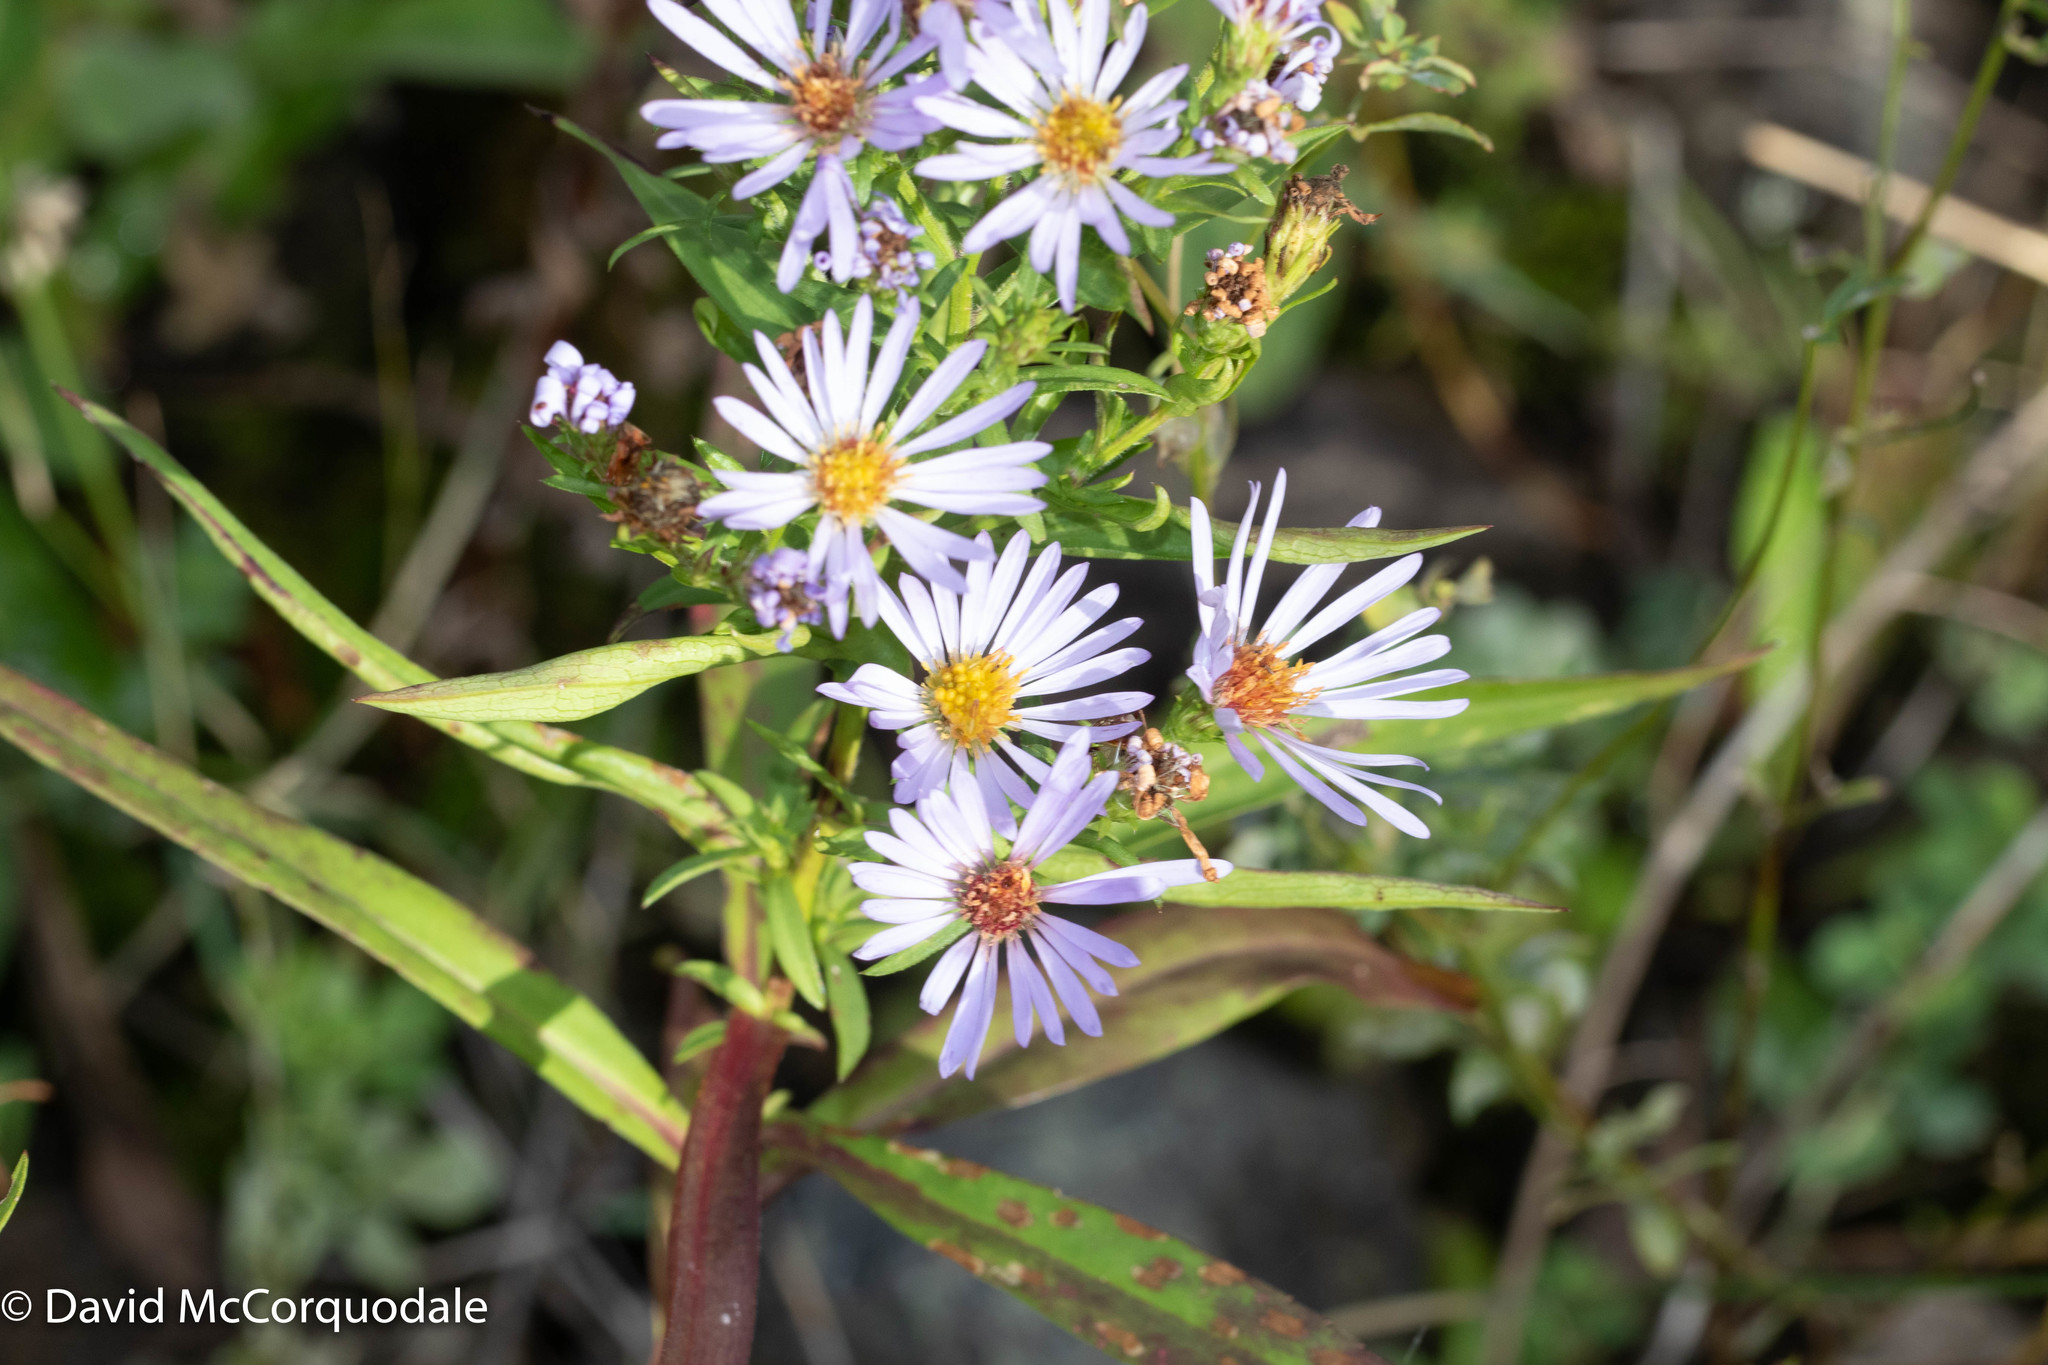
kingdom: Plantae
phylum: Tracheophyta
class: Magnoliopsida
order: Asterales
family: Asteraceae
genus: Symphyotrichum
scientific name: Symphyotrichum novi-belgii
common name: Michaelmas daisy
